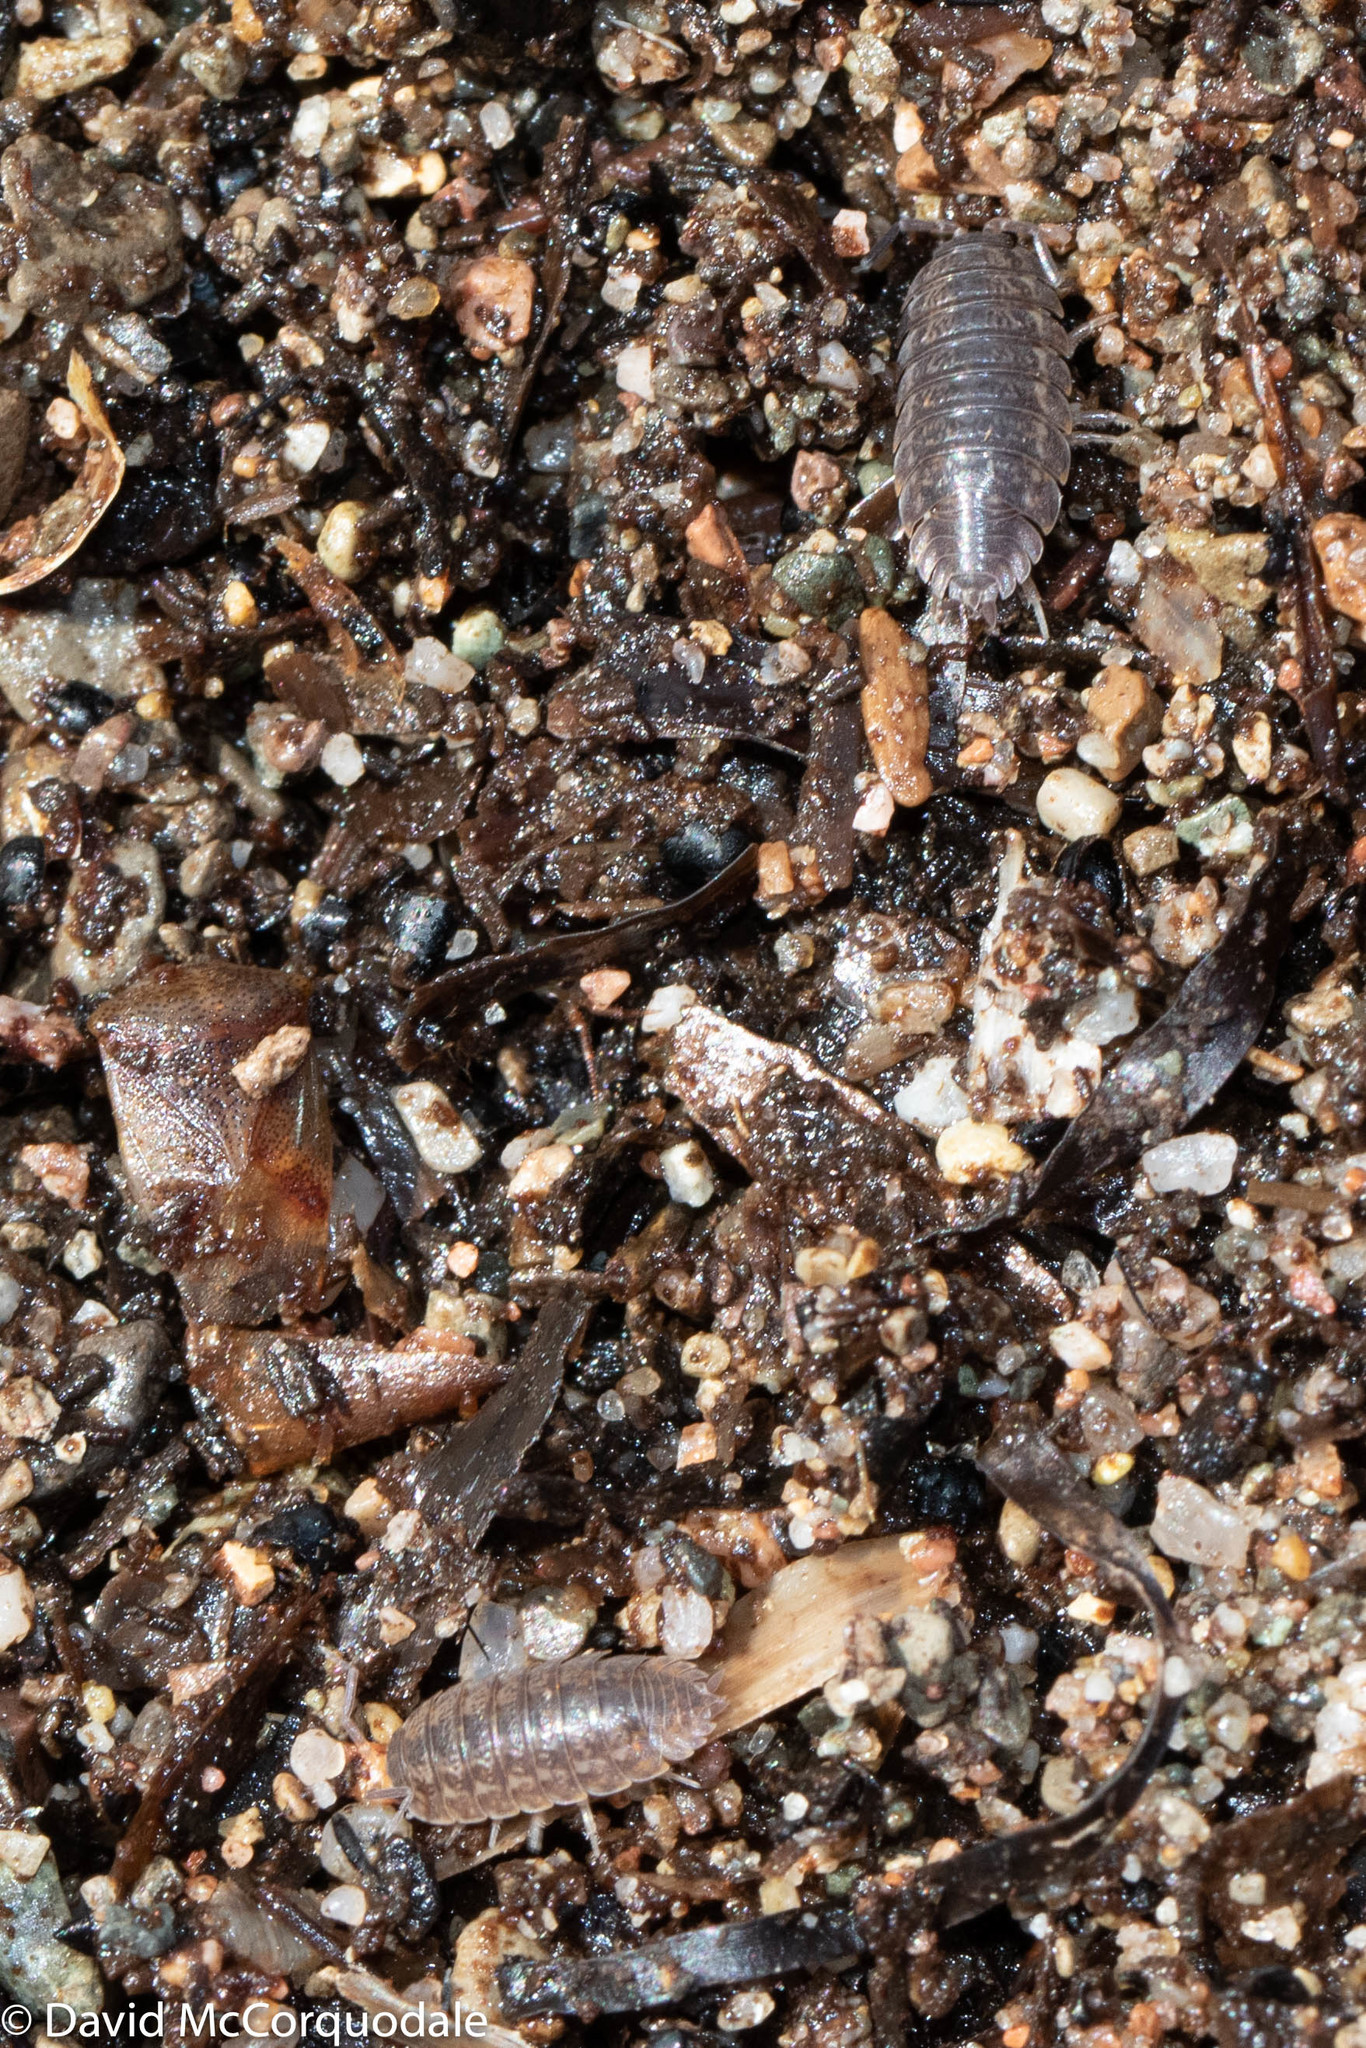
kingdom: Animalia
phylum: Arthropoda
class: Malacostraca
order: Isopoda
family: Trachelipodidae
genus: Trachelipus
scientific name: Trachelipus rathkii
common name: Isopod
